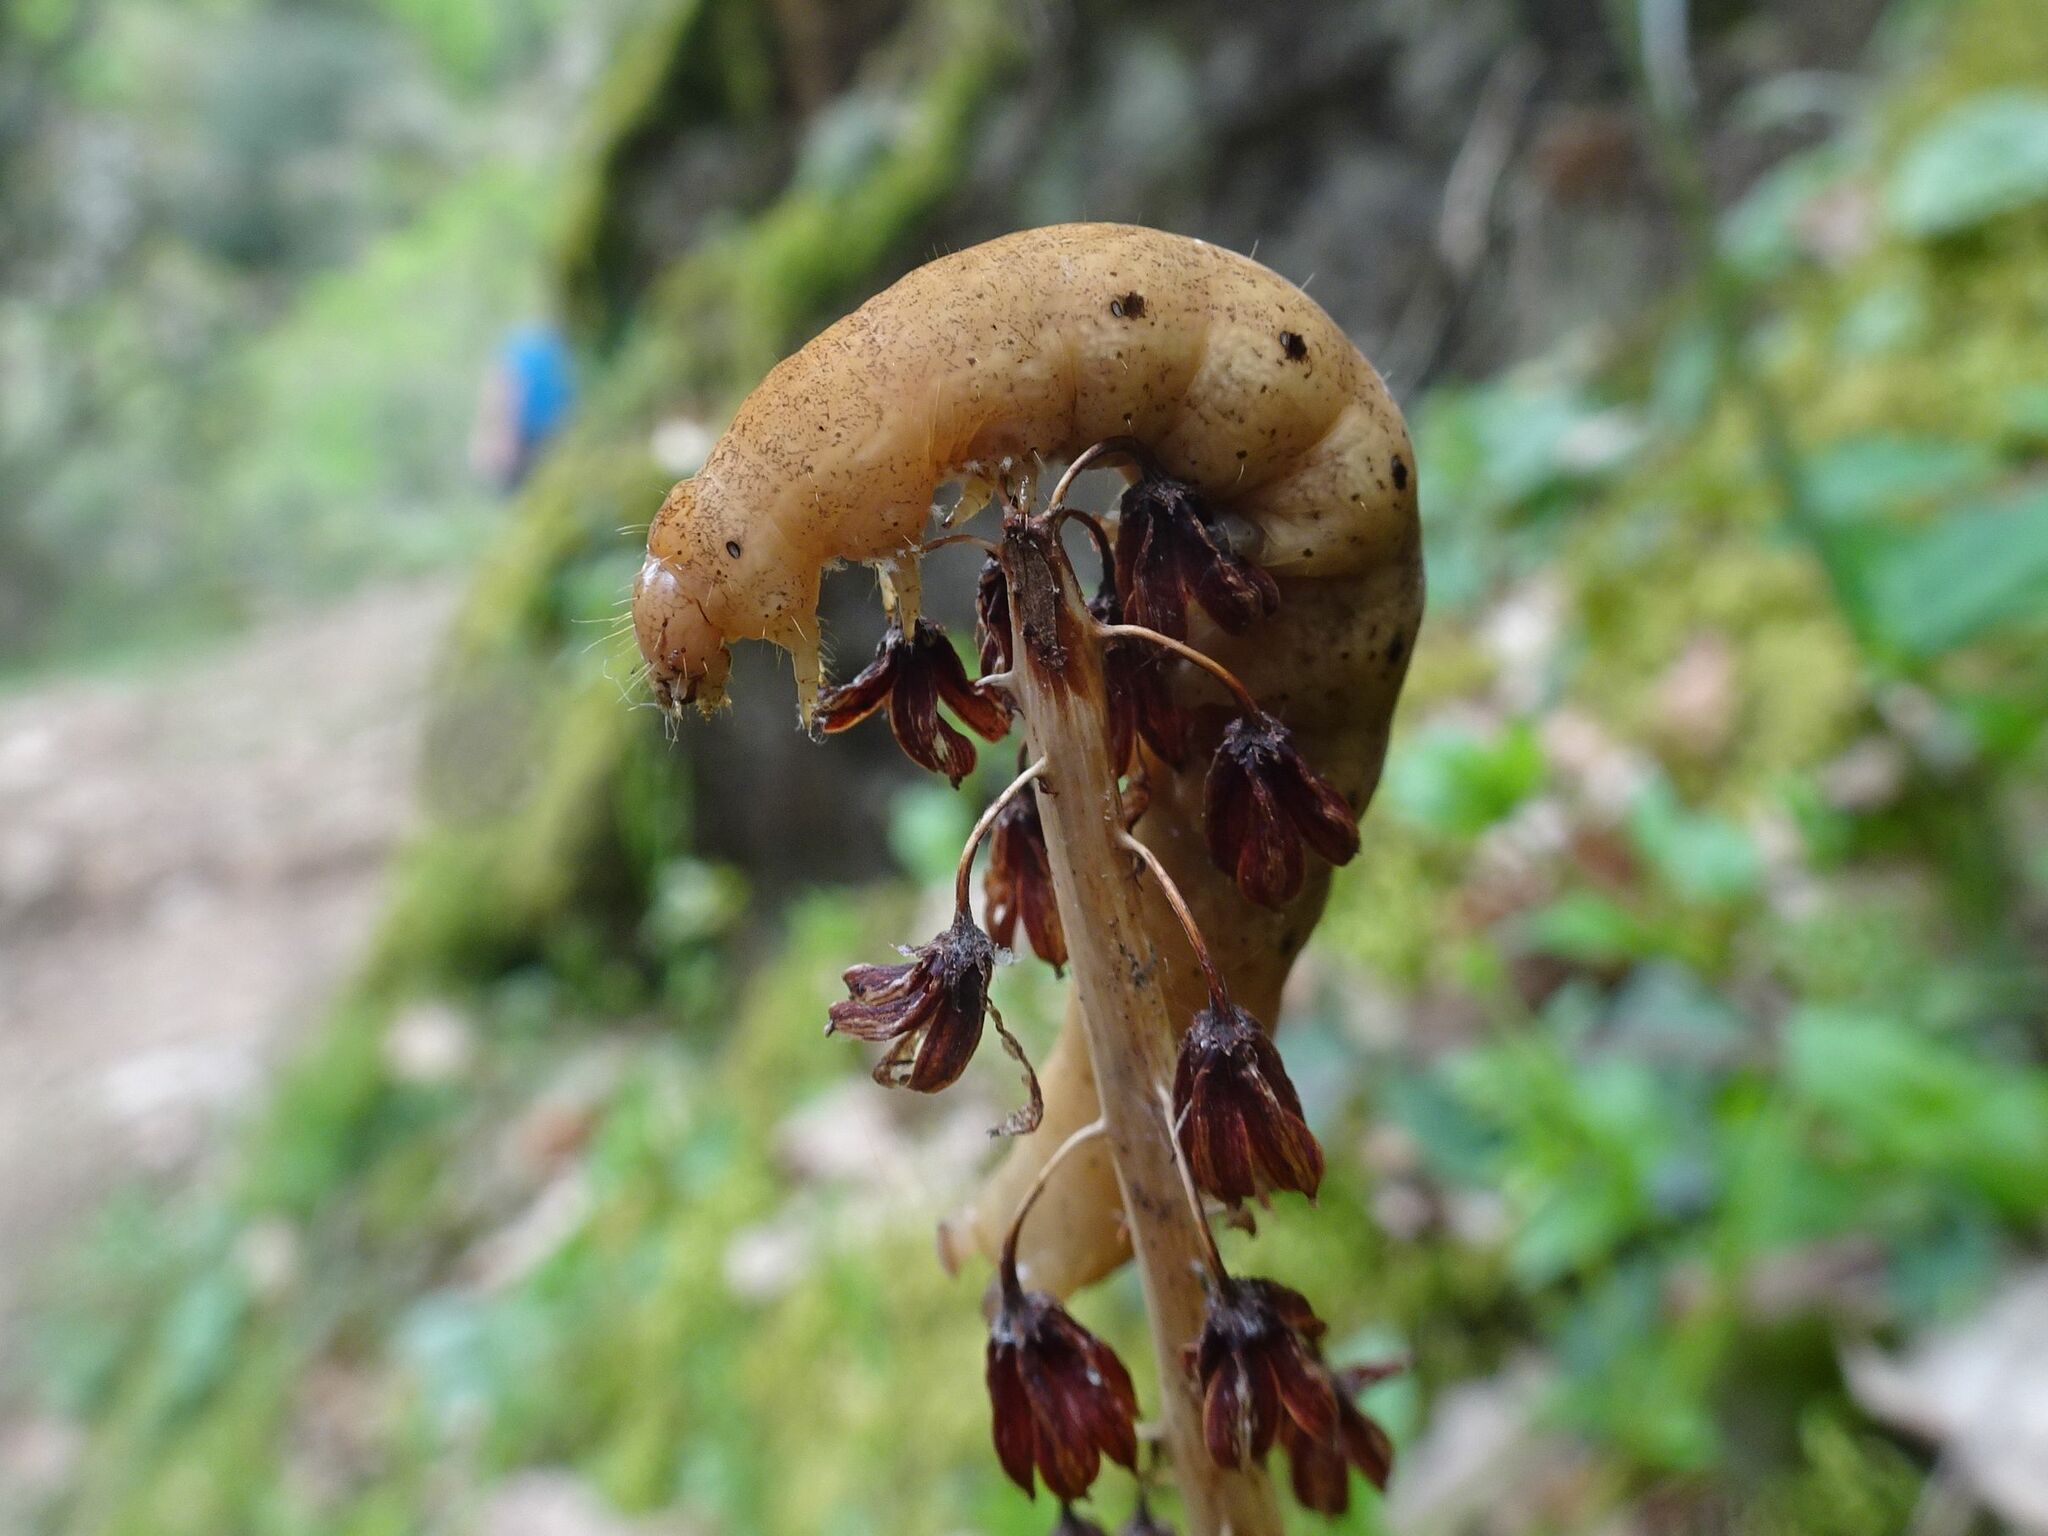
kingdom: Animalia
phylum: Arthropoda
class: Insecta
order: Lepidoptera
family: Noctuidae
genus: Noctua
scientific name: Noctua fimbriata
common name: Broad-bordered yellow underwing
